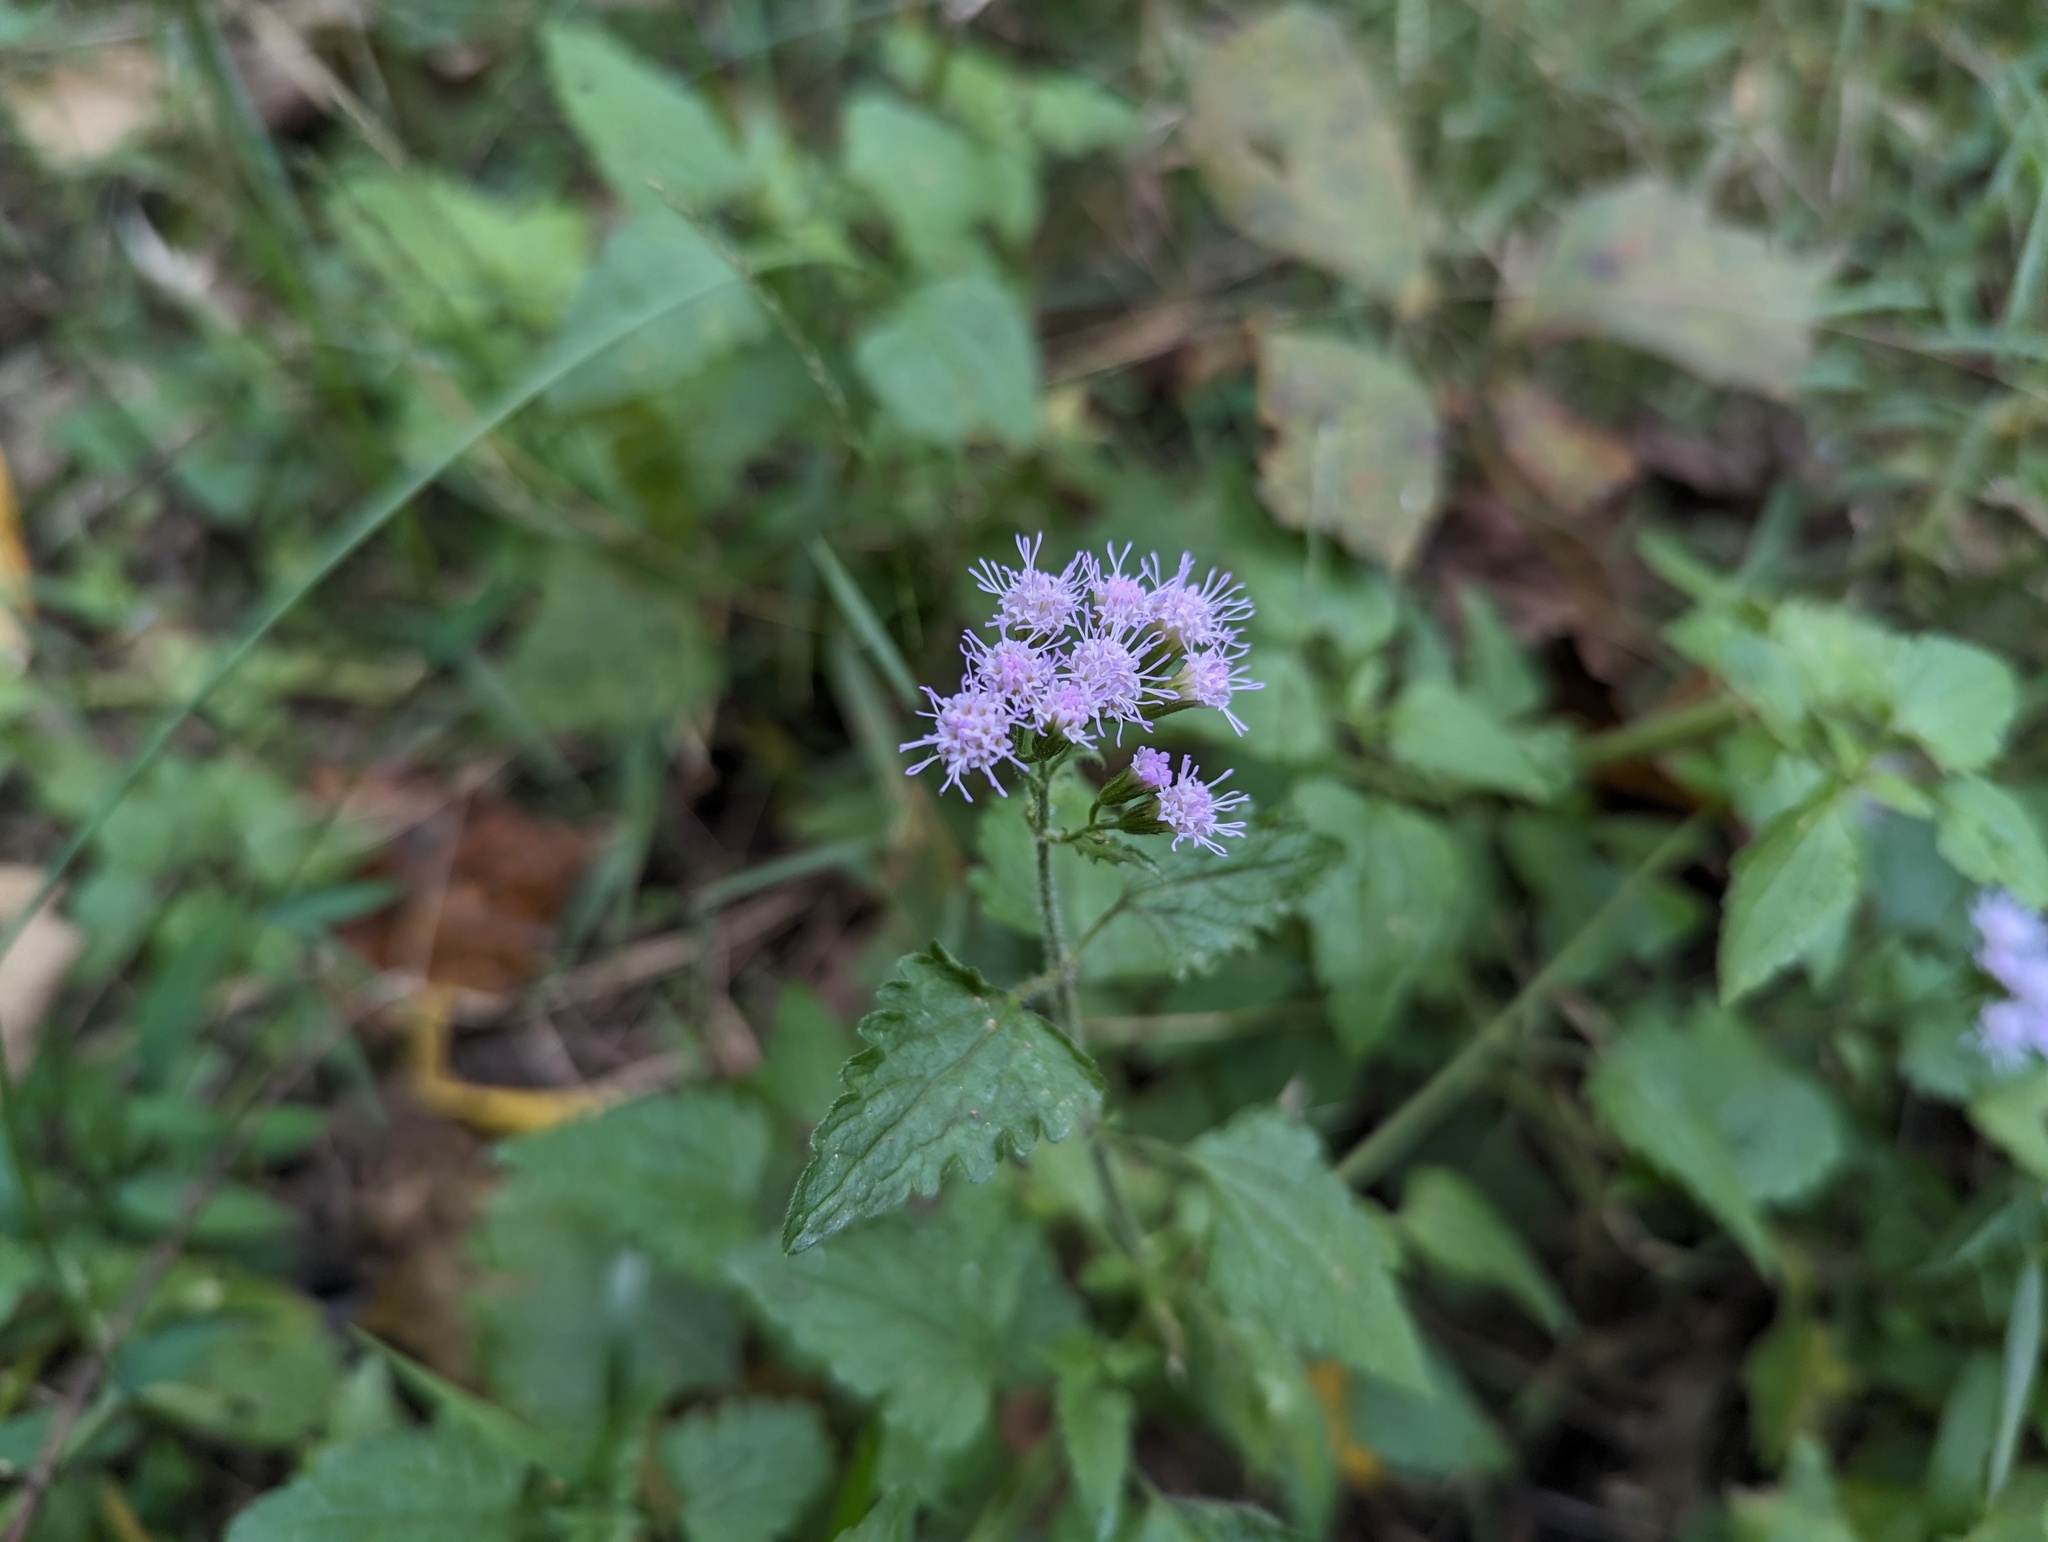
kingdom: Plantae
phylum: Tracheophyta
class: Magnoliopsida
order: Asterales
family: Asteraceae
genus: Fleischmannia
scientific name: Fleischmannia incarnata
